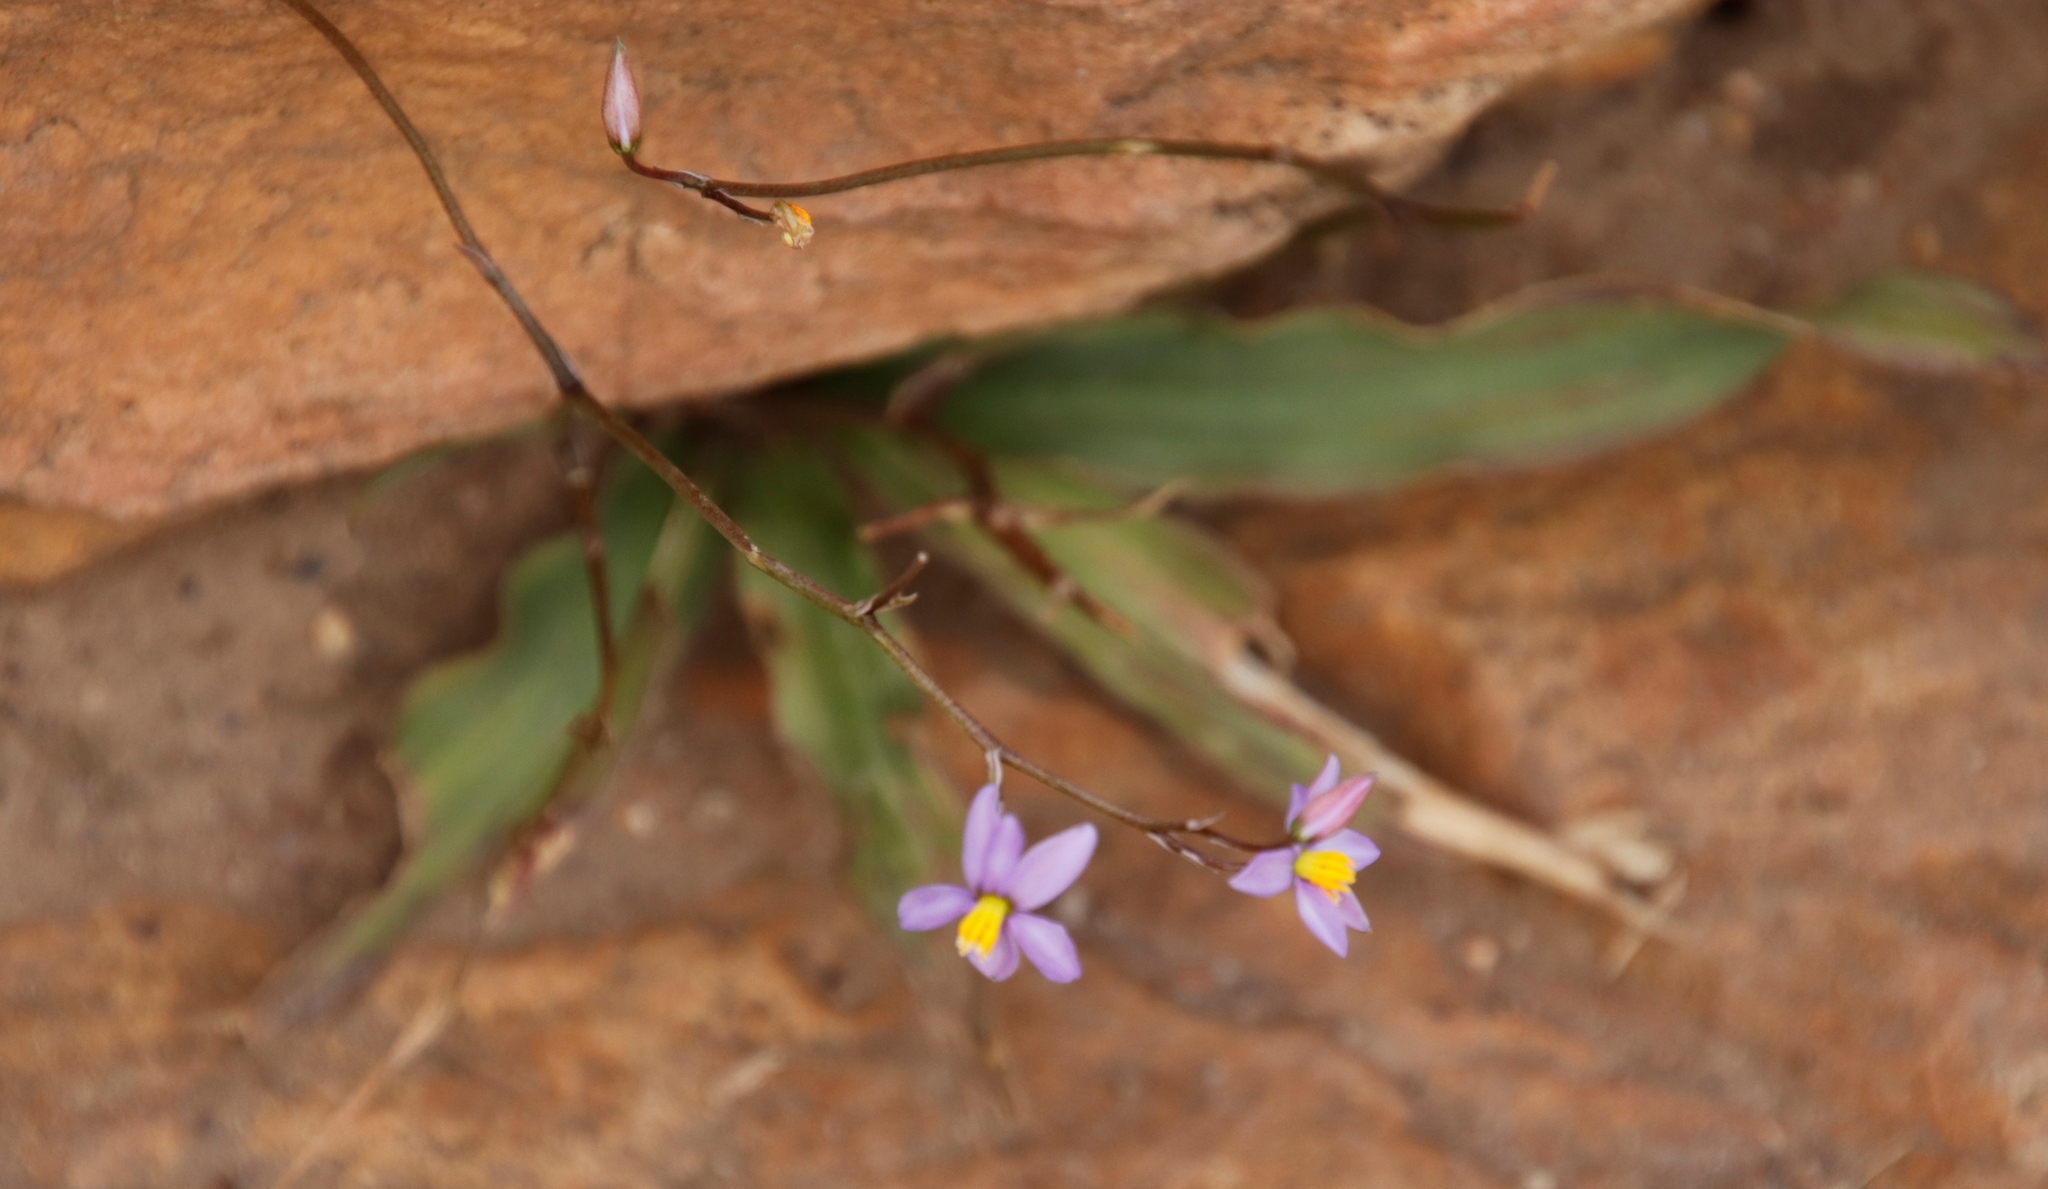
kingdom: Plantae
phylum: Tracheophyta
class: Liliopsida
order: Asparagales
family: Tecophilaeaceae
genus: Cyanella
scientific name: Cyanella hyacinthoides
